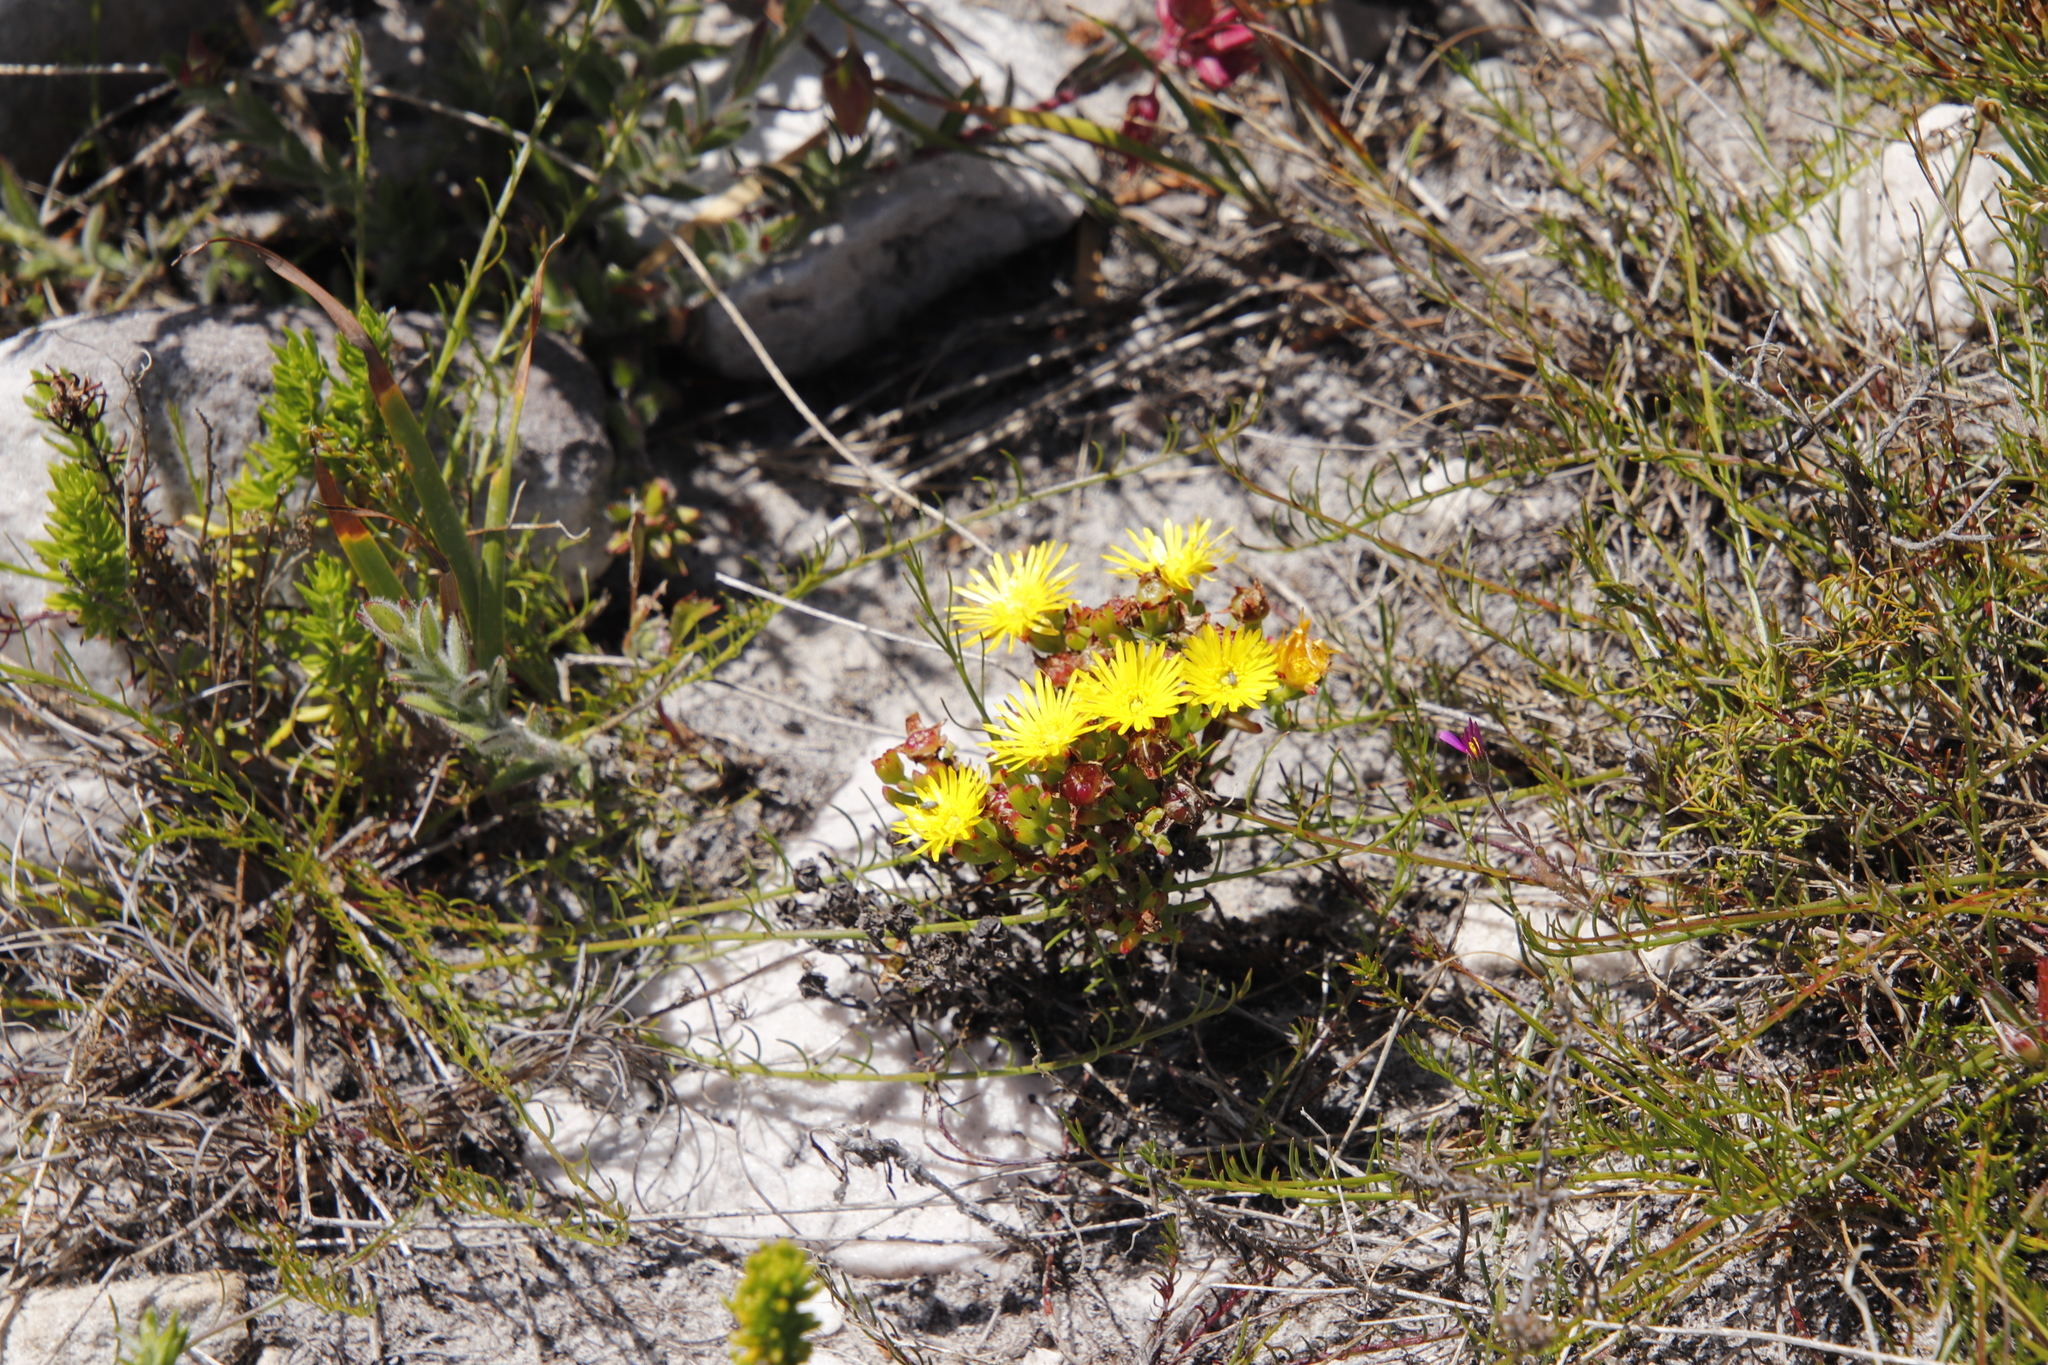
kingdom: Plantae
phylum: Tracheophyta
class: Magnoliopsida
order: Caryophyllales
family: Aizoaceae
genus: Lampranthus
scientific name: Lampranthus promontorii
